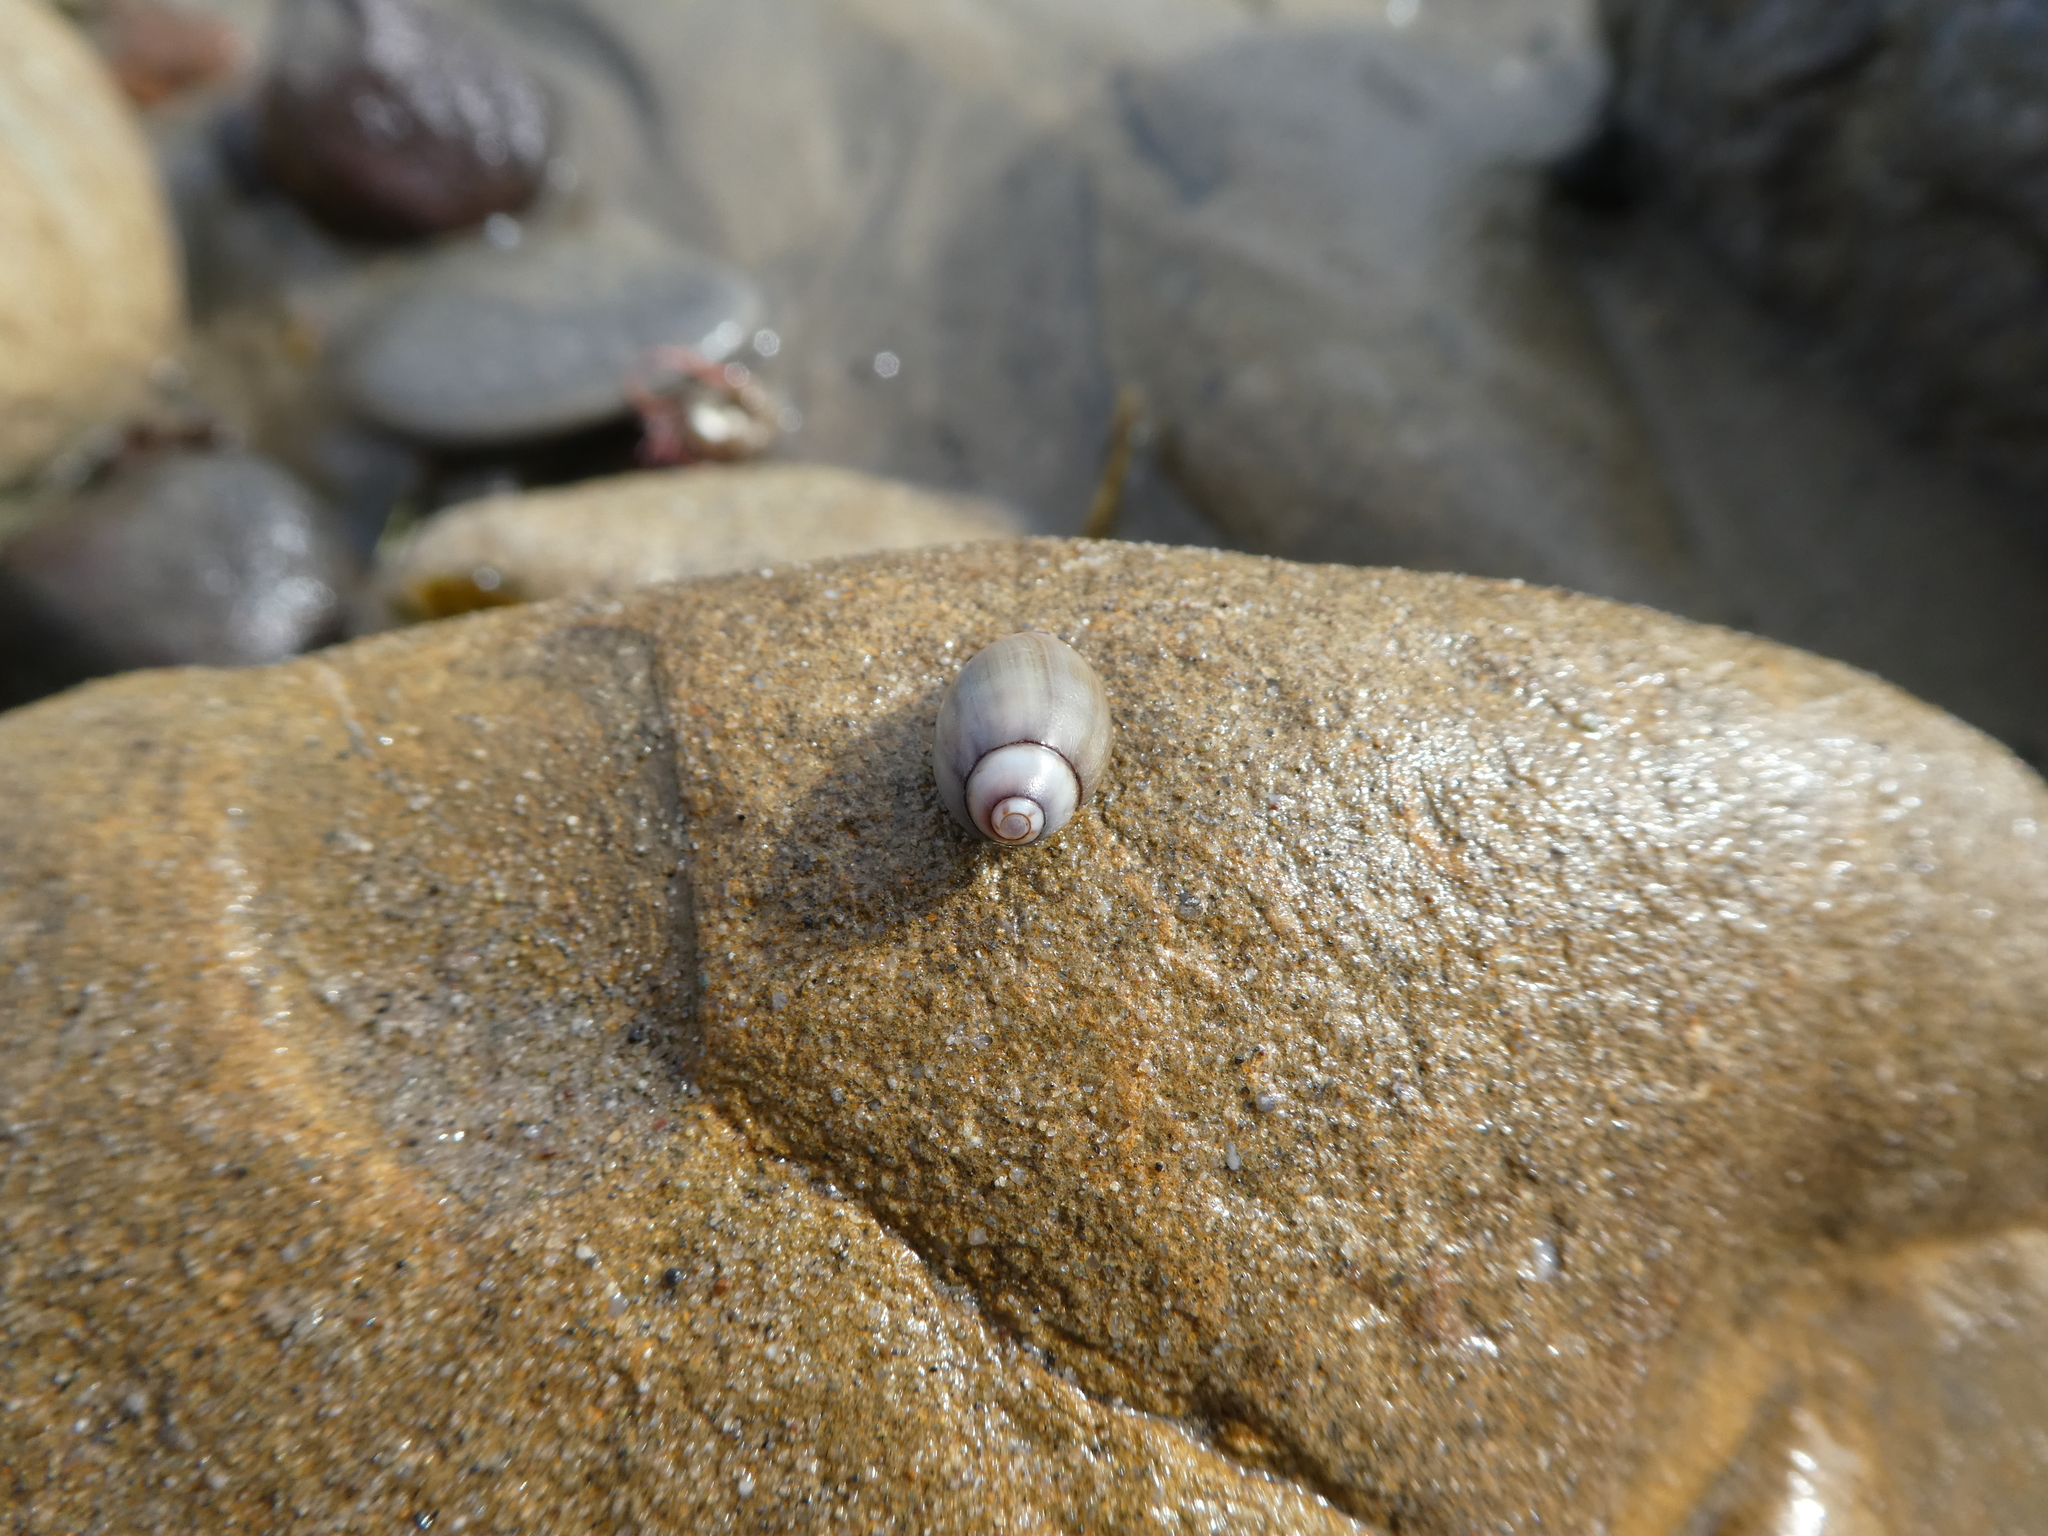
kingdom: Animalia
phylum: Mollusca
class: Gastropoda
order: Neogastropoda
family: Olividae
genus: Callianax
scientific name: Callianax biplicata
